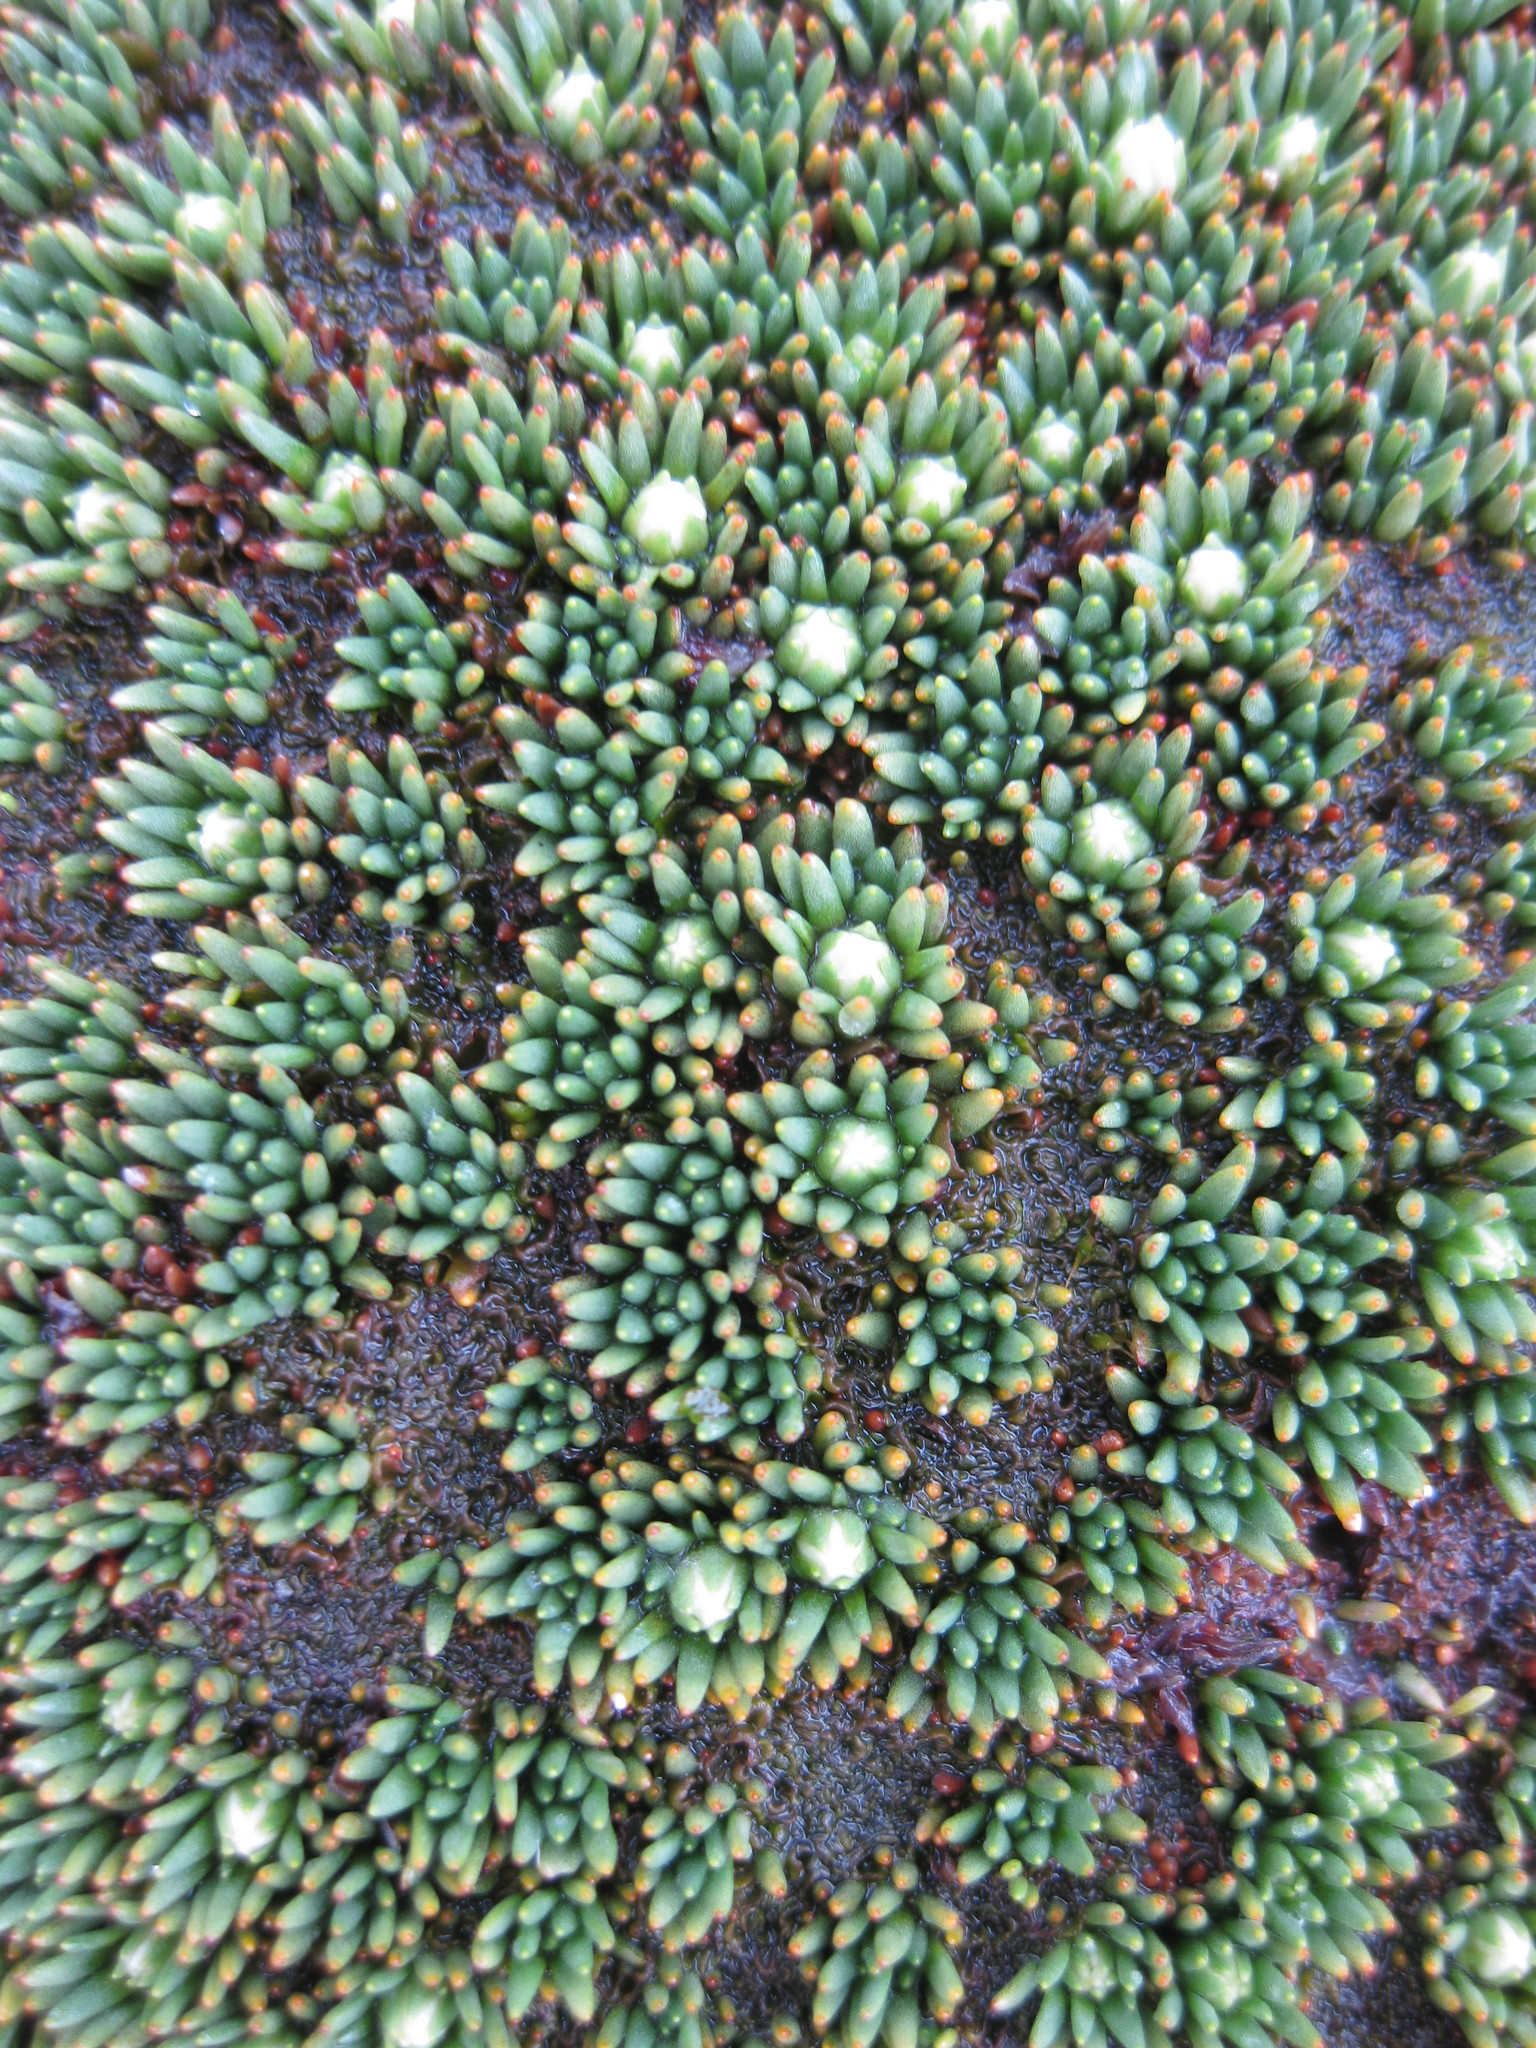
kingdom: Plantae
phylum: Tracheophyta
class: Magnoliopsida
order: Asterales
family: Stylidiaceae
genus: Donatia
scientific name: Donatia novae-zelandiae
